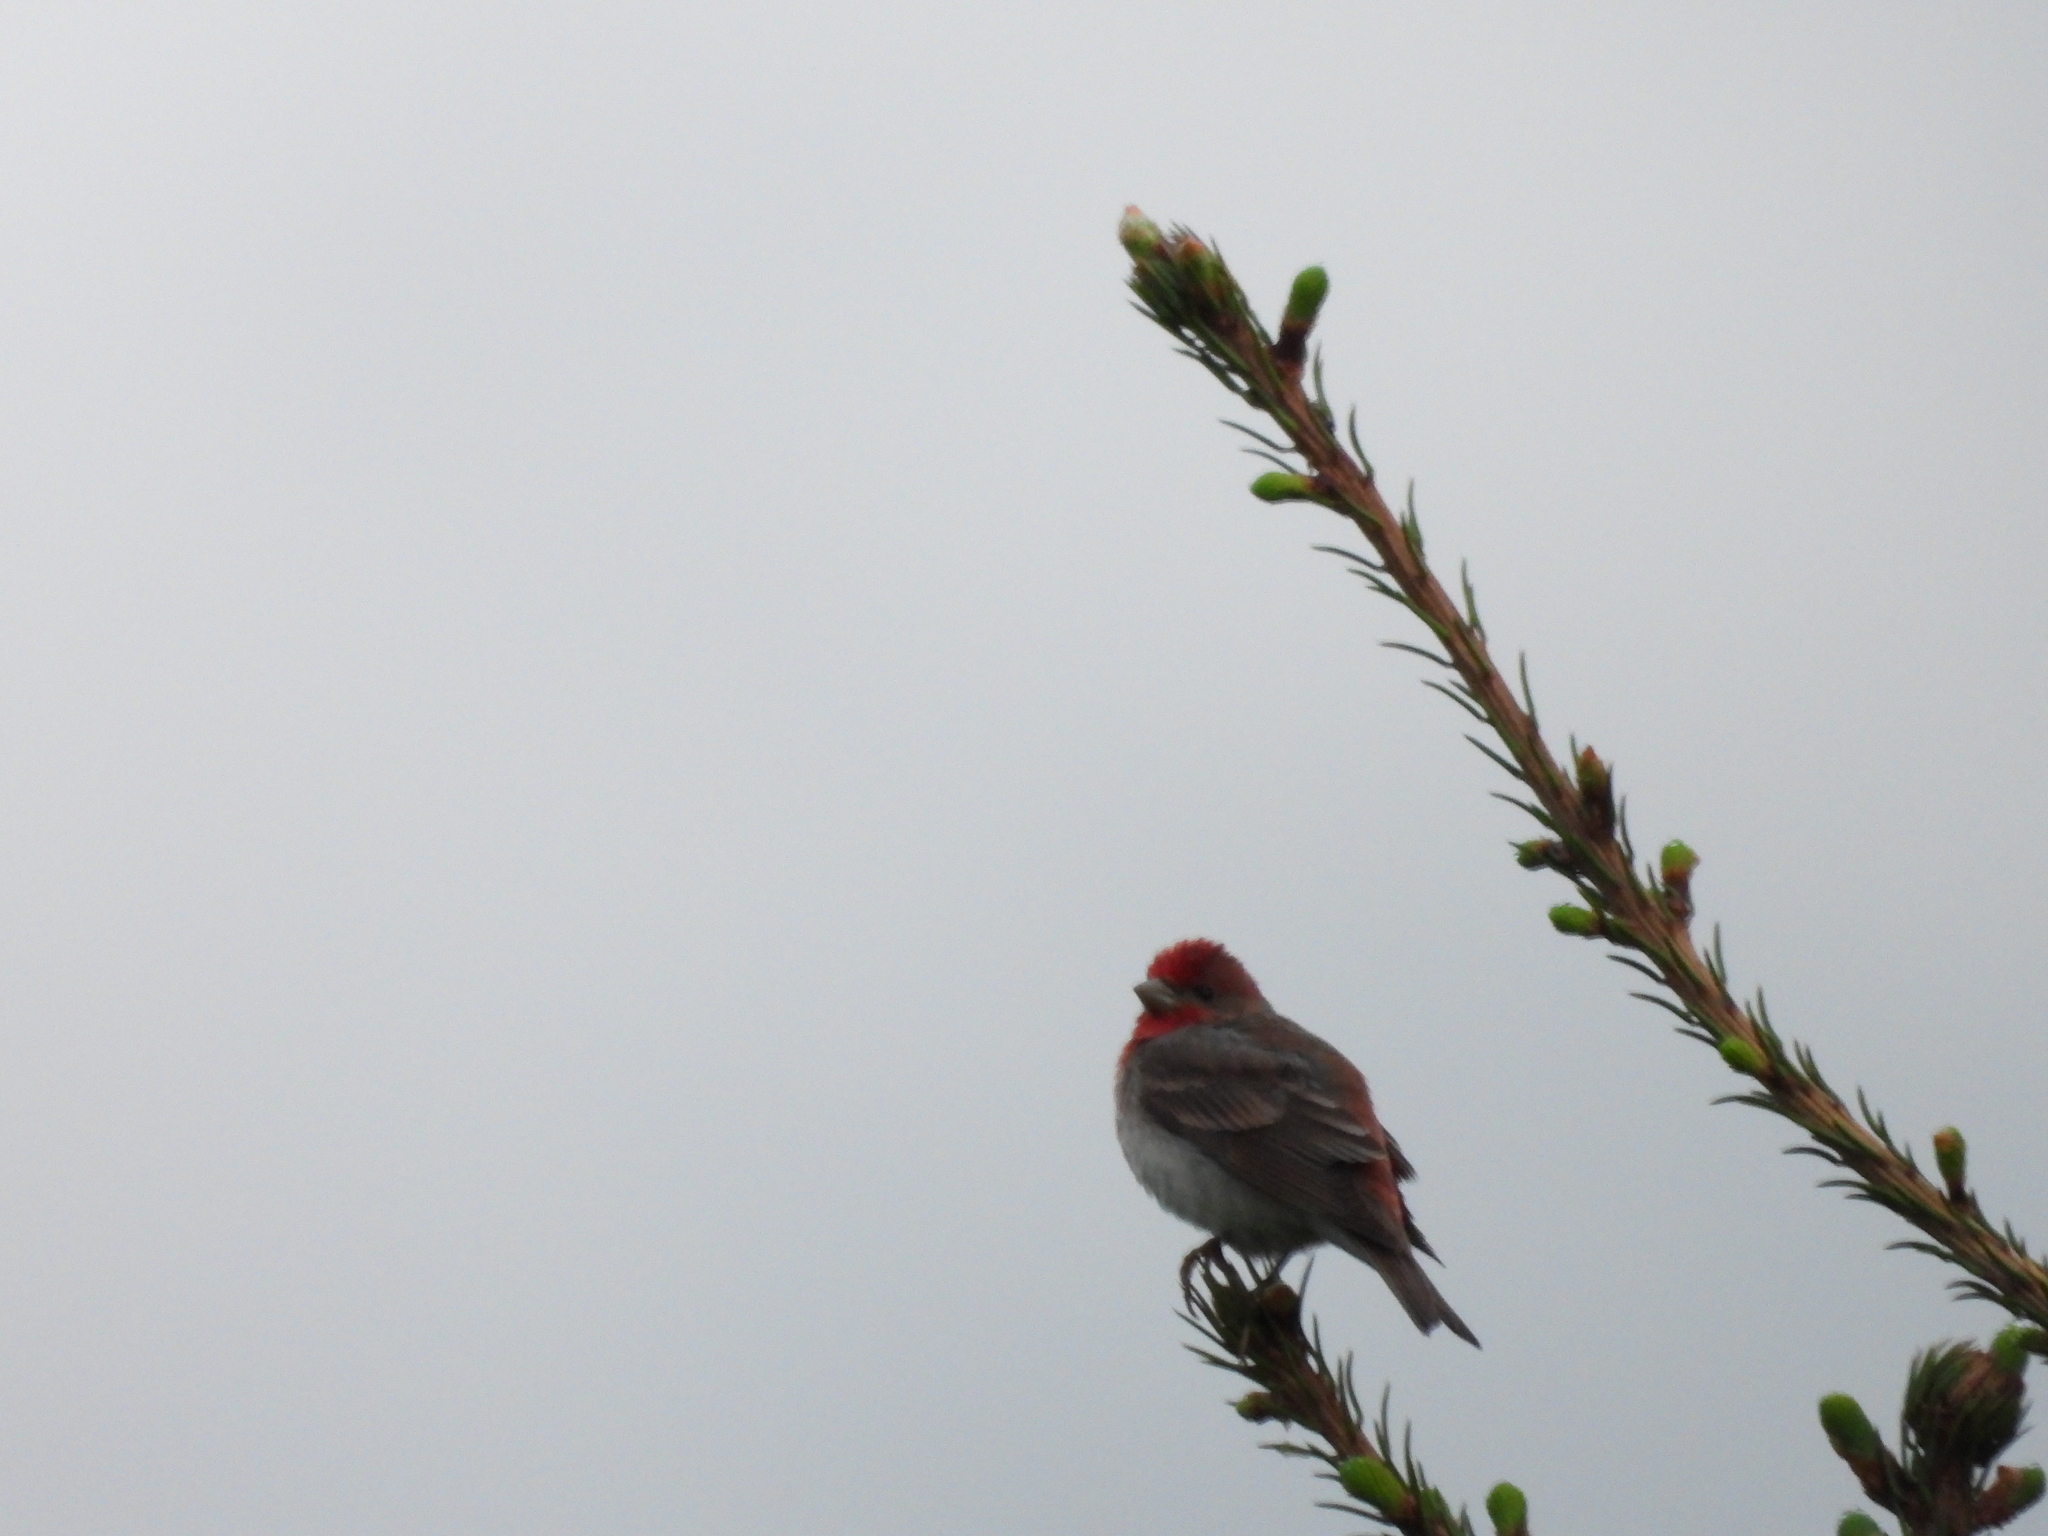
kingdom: Animalia
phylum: Chordata
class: Aves
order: Passeriformes
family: Fringillidae
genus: Carpodacus
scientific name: Carpodacus erythrinus
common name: Common rosefinch
